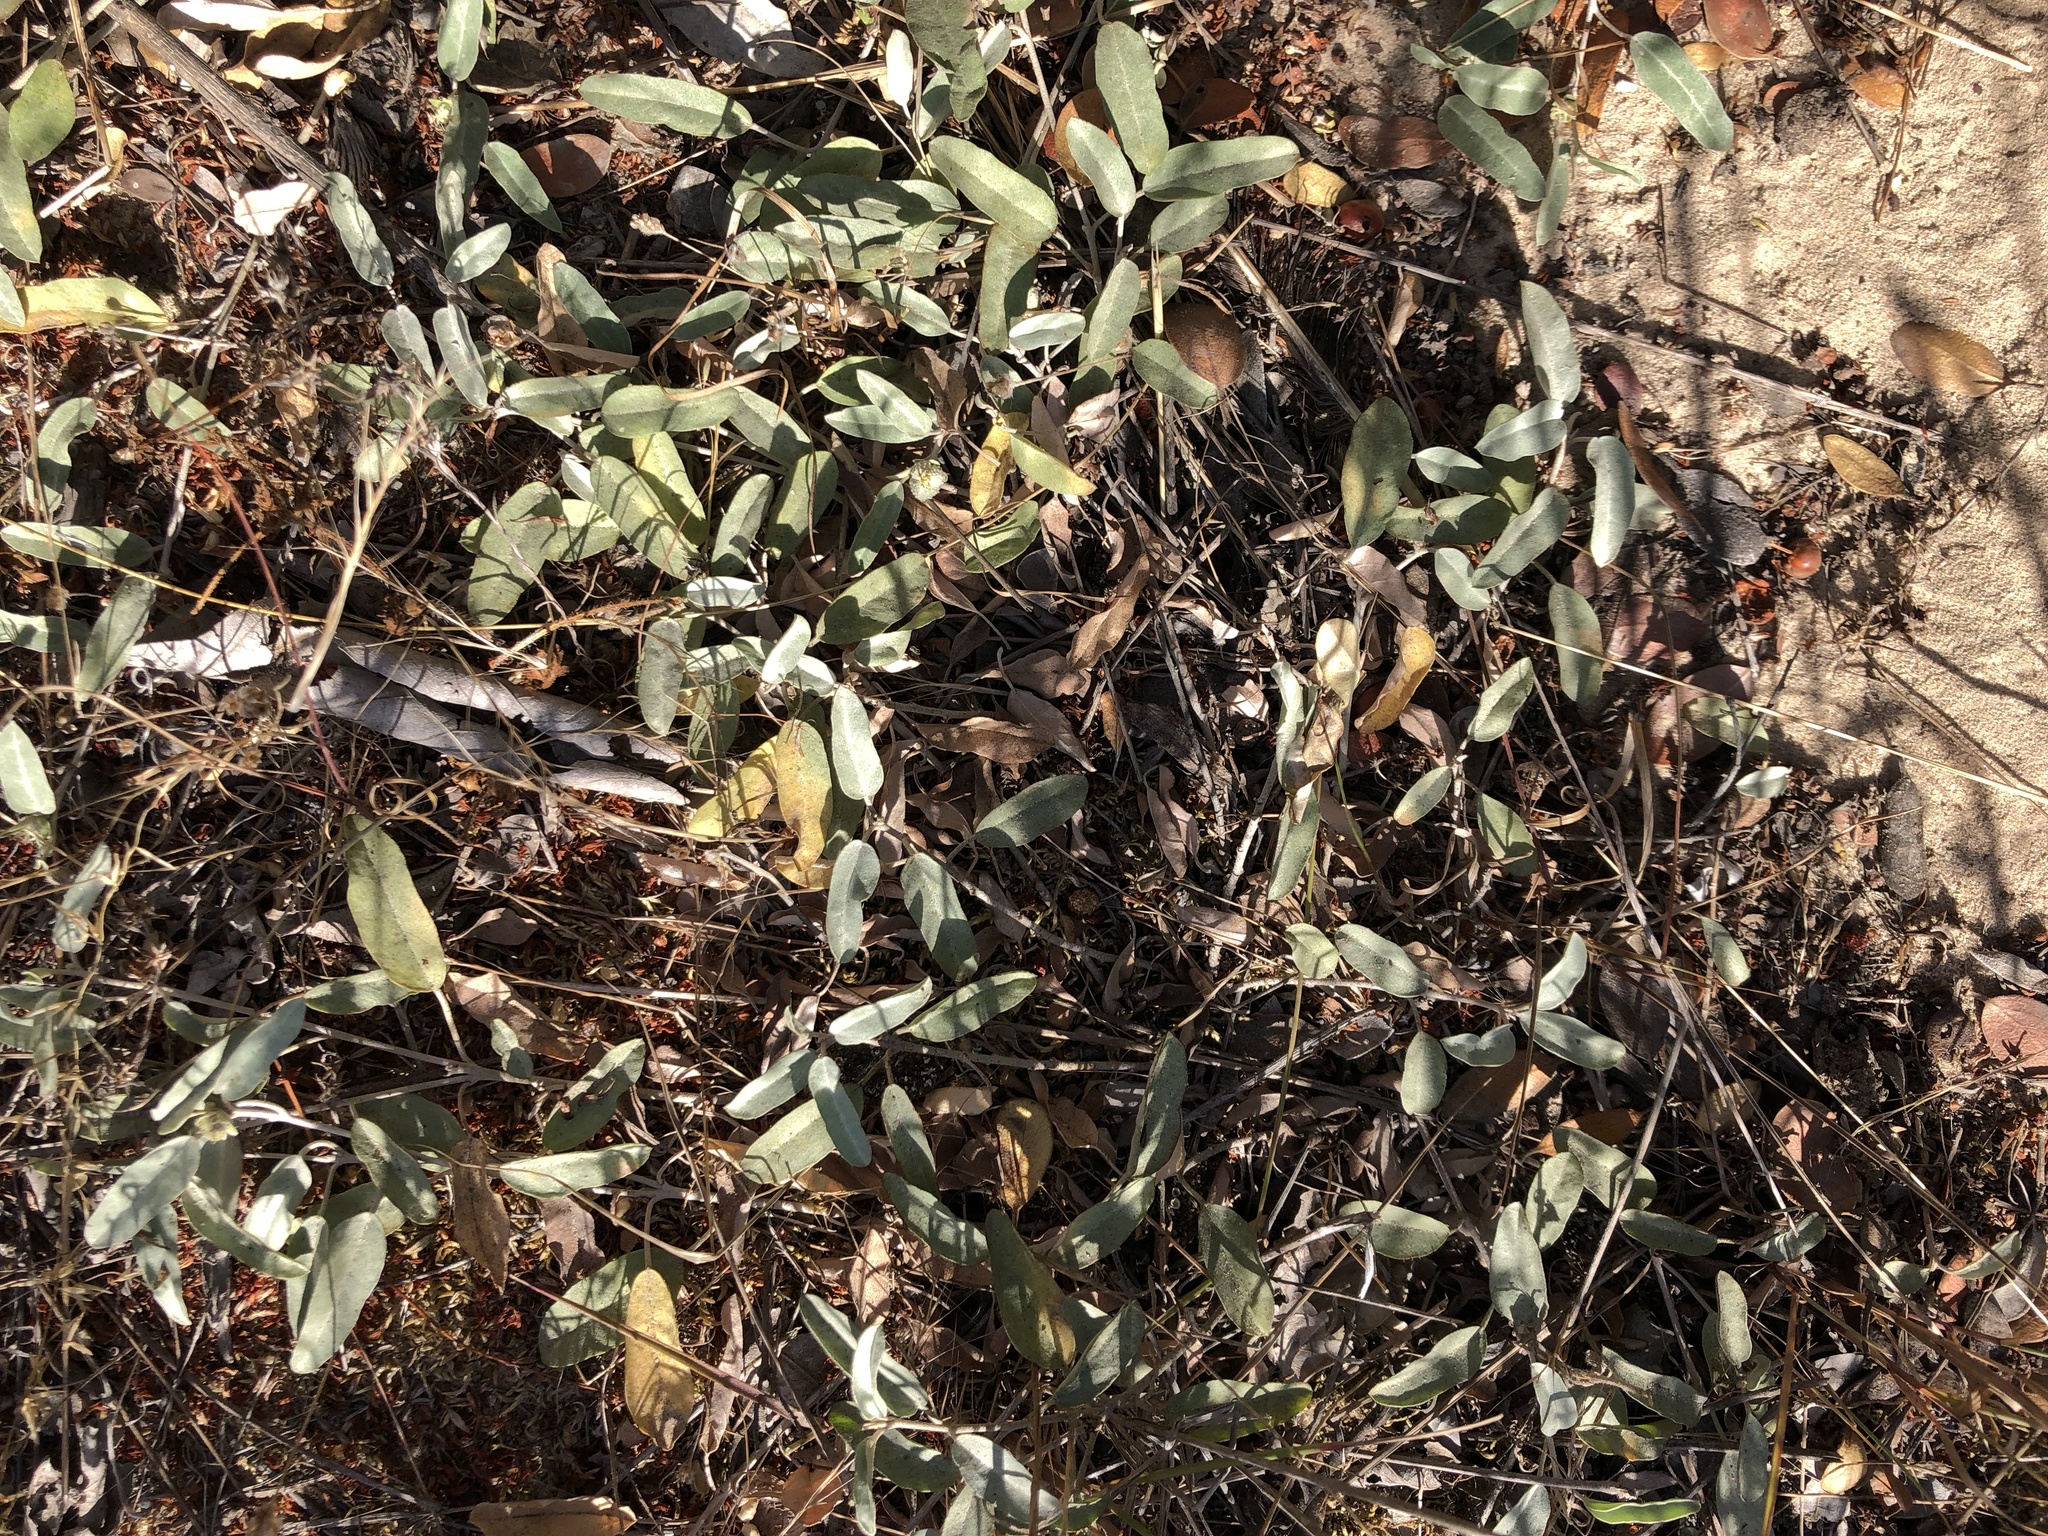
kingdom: Plantae
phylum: Tracheophyta
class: Magnoliopsida
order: Malpighiales
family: Euphorbiaceae
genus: Croton
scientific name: Croton californicus
